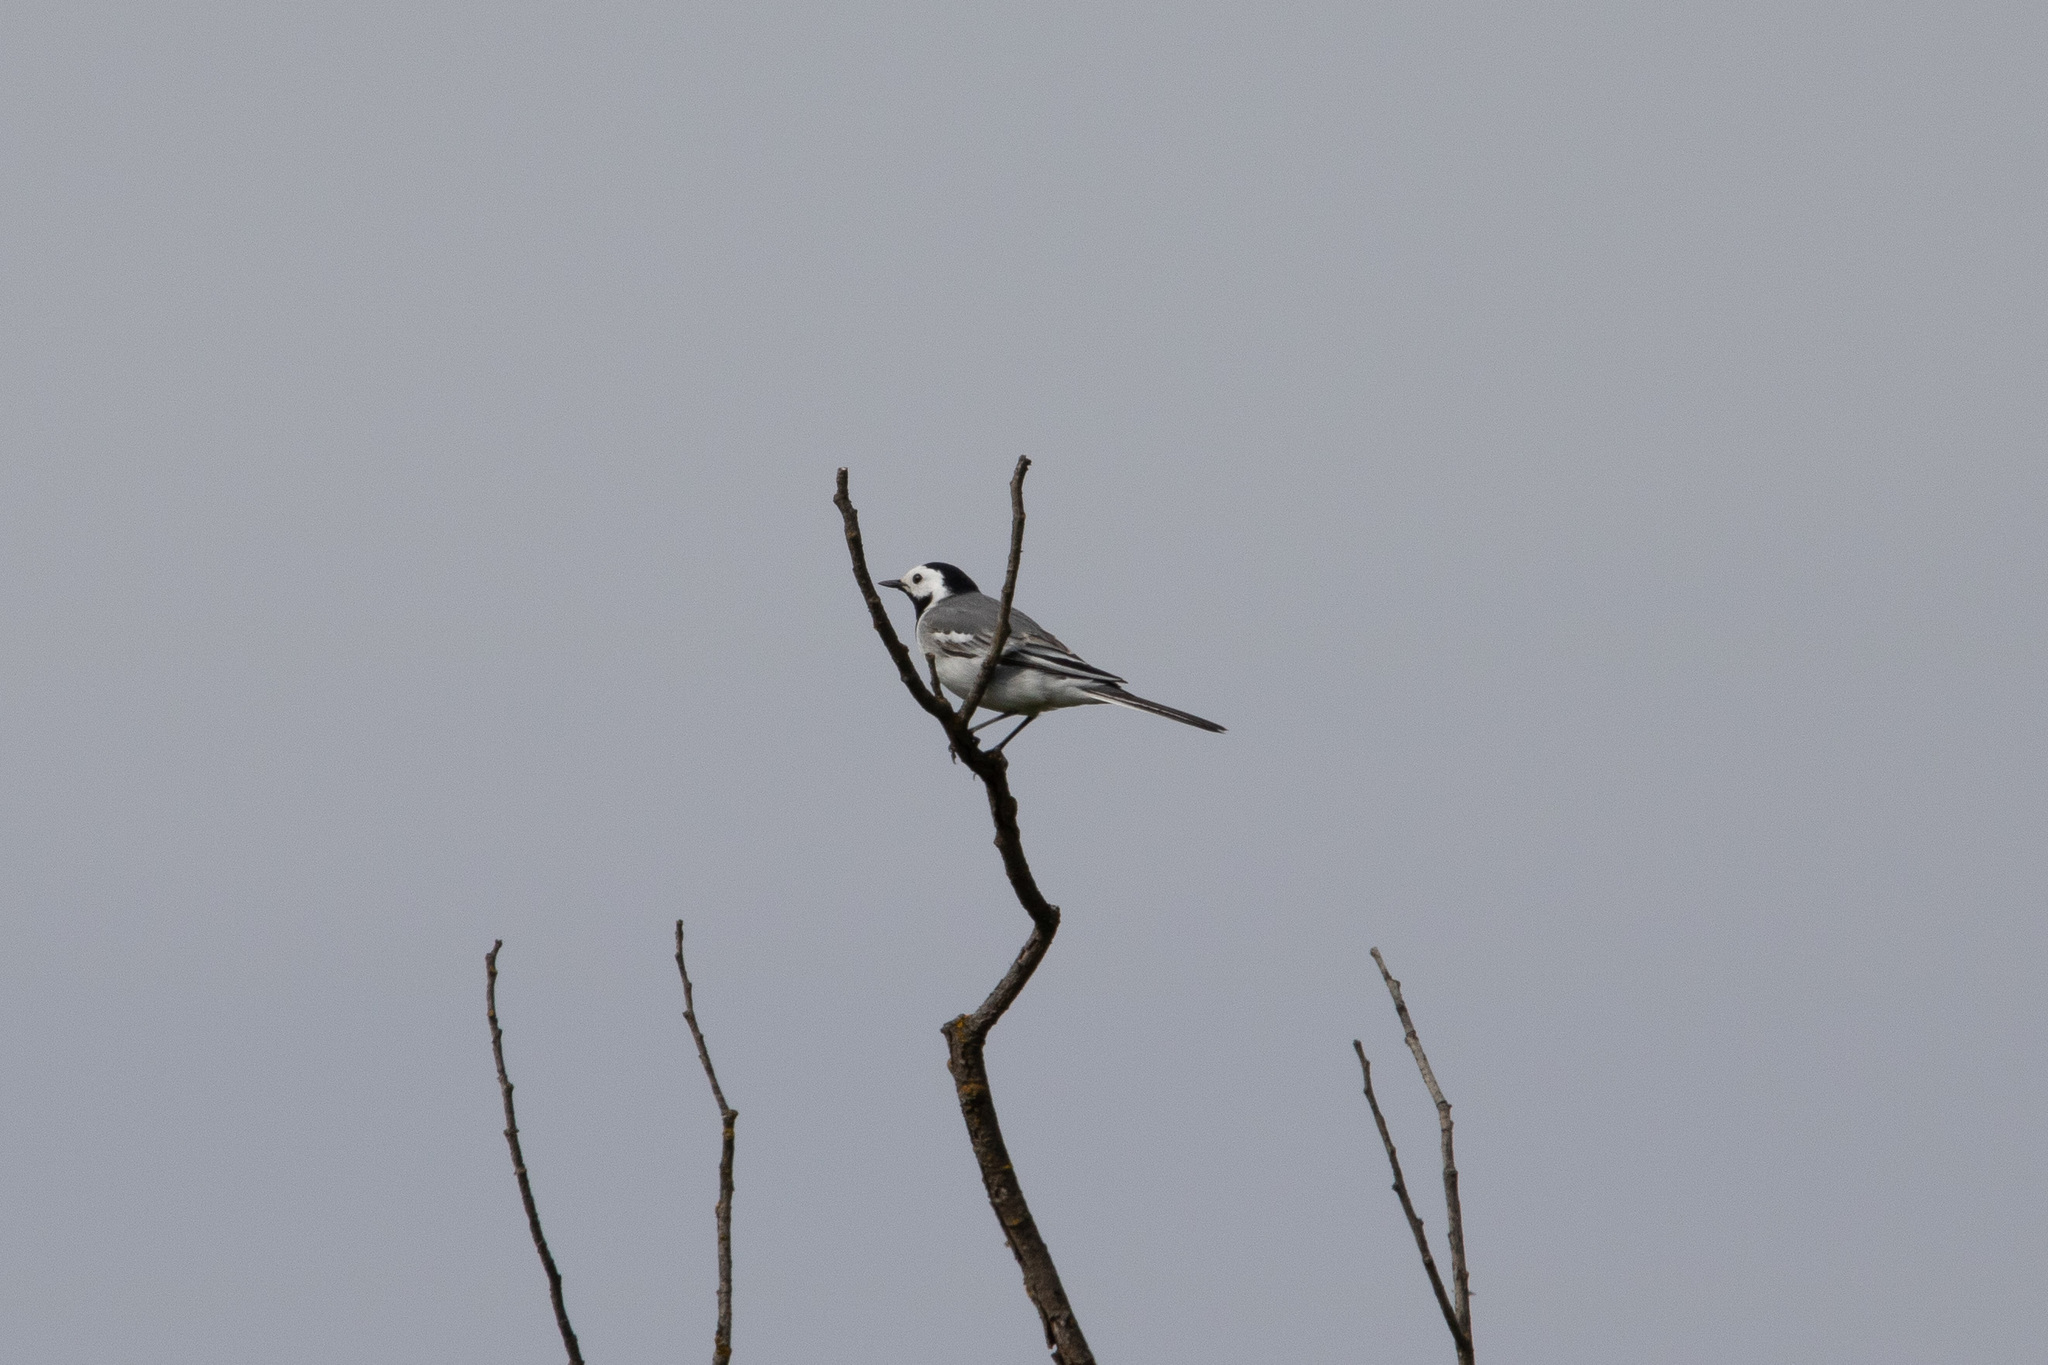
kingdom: Animalia
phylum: Chordata
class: Aves
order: Passeriformes
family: Motacillidae
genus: Motacilla
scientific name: Motacilla alba
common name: White wagtail
